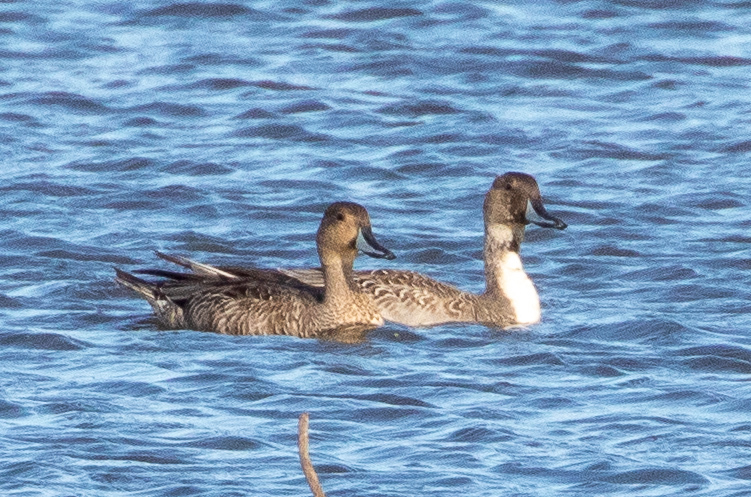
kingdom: Animalia
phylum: Chordata
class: Aves
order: Anseriformes
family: Anatidae
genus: Anas
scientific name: Anas acuta
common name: Northern pintail
